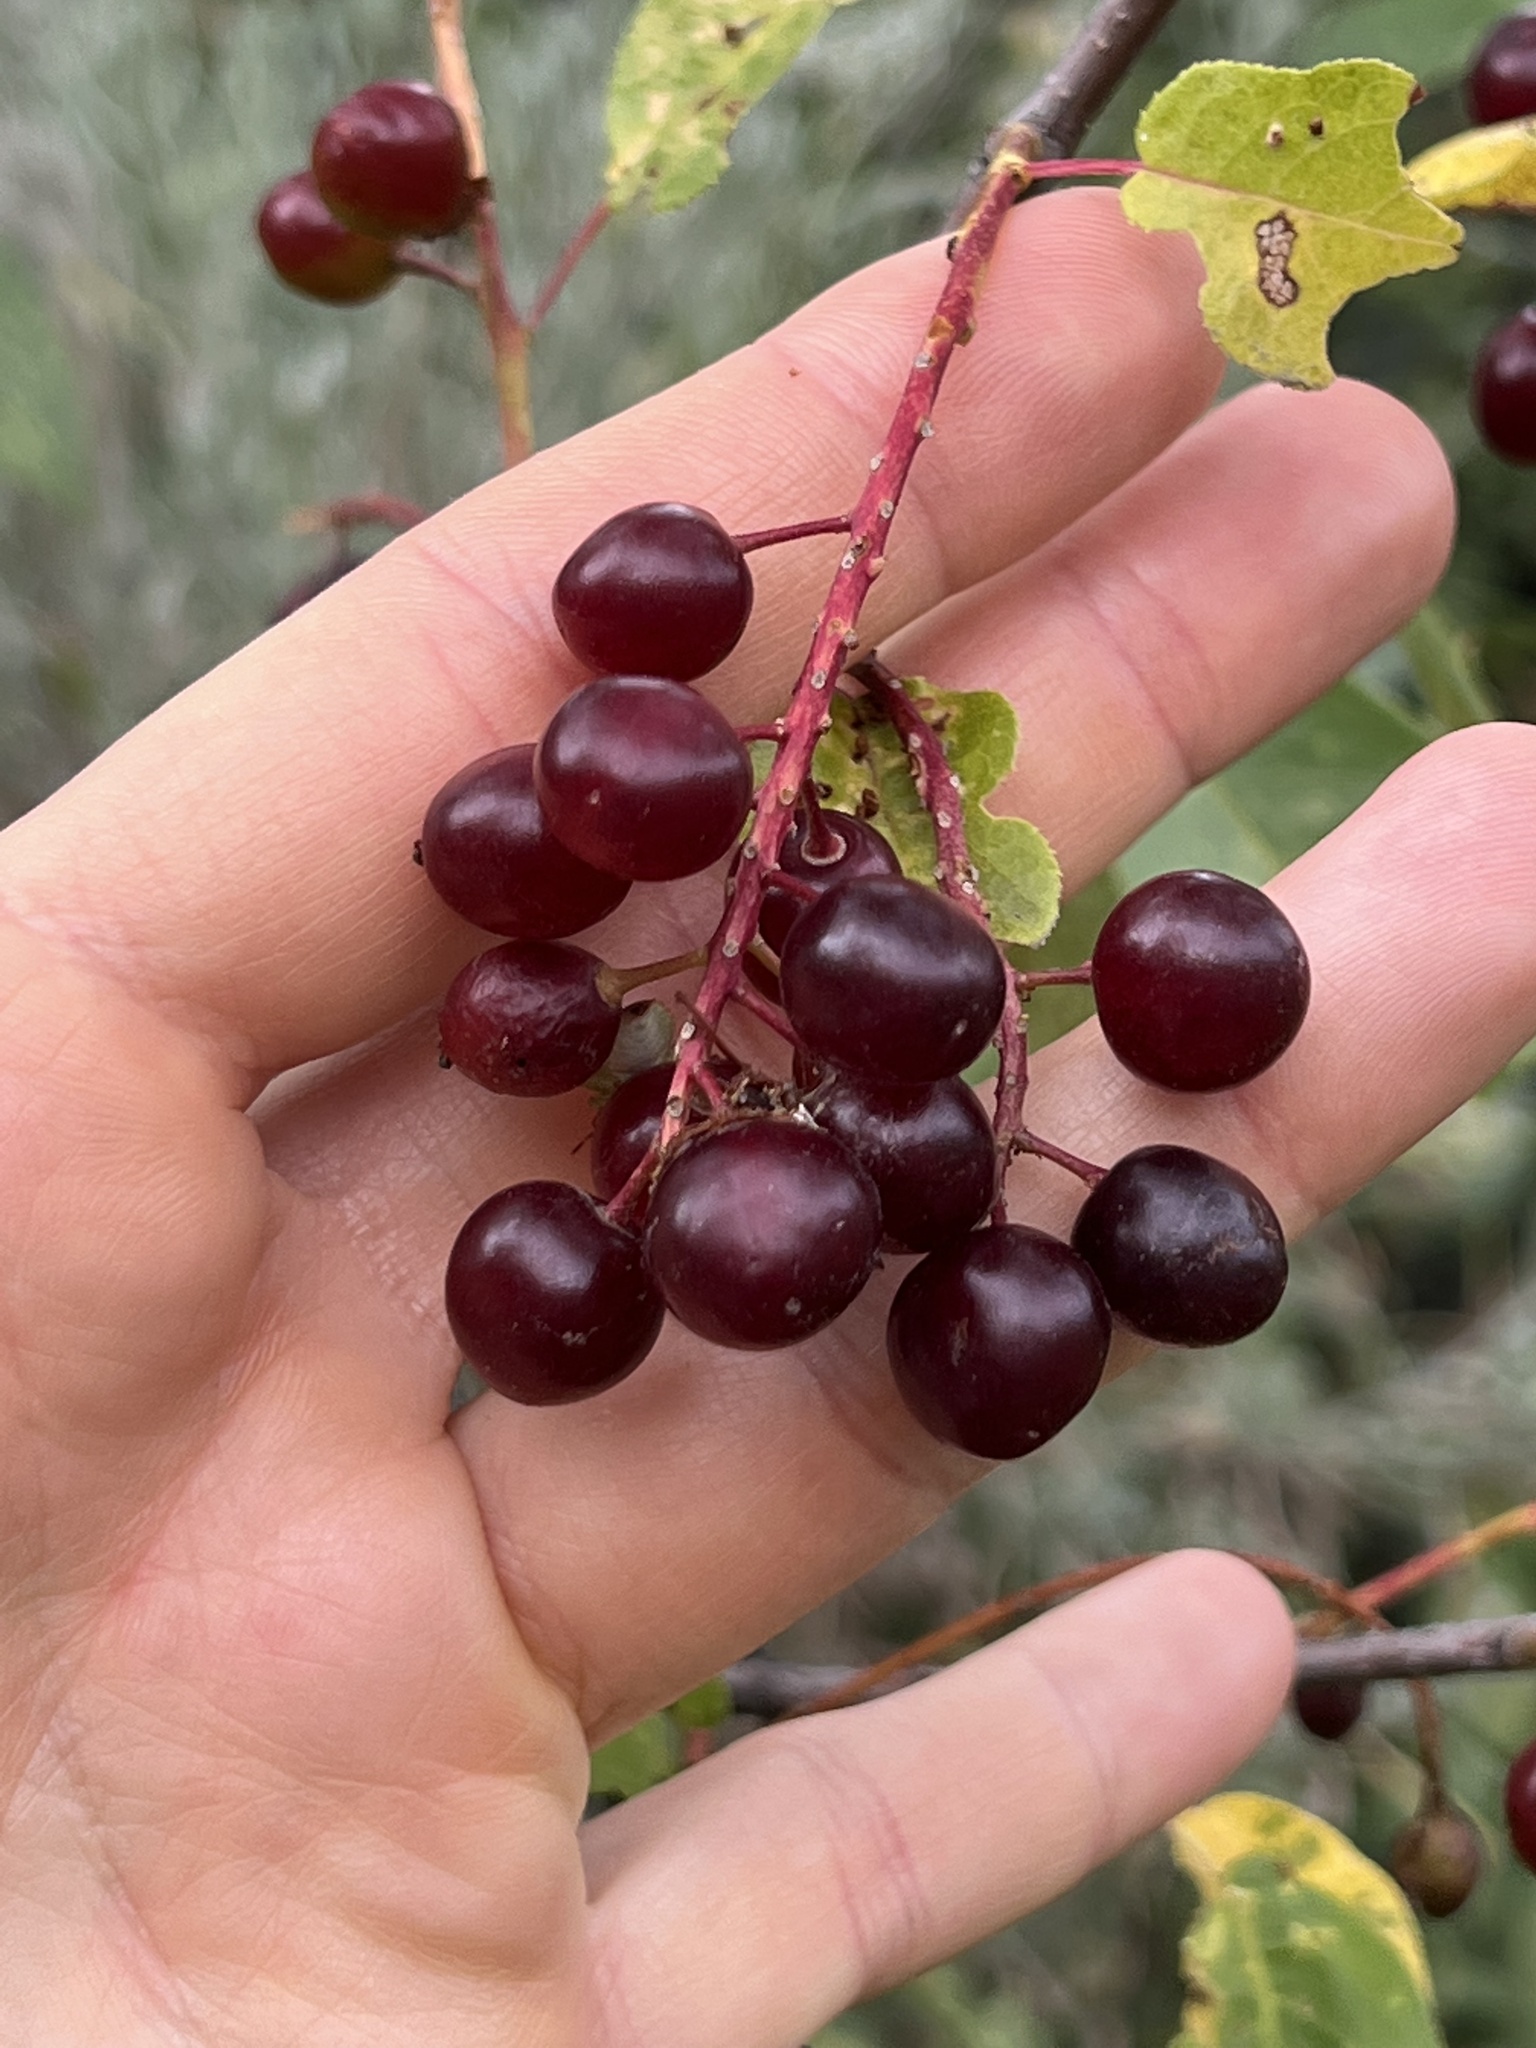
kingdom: Plantae
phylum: Tracheophyta
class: Magnoliopsida
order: Rosales
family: Rosaceae
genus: Prunus
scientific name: Prunus virginiana
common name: Chokecherry
